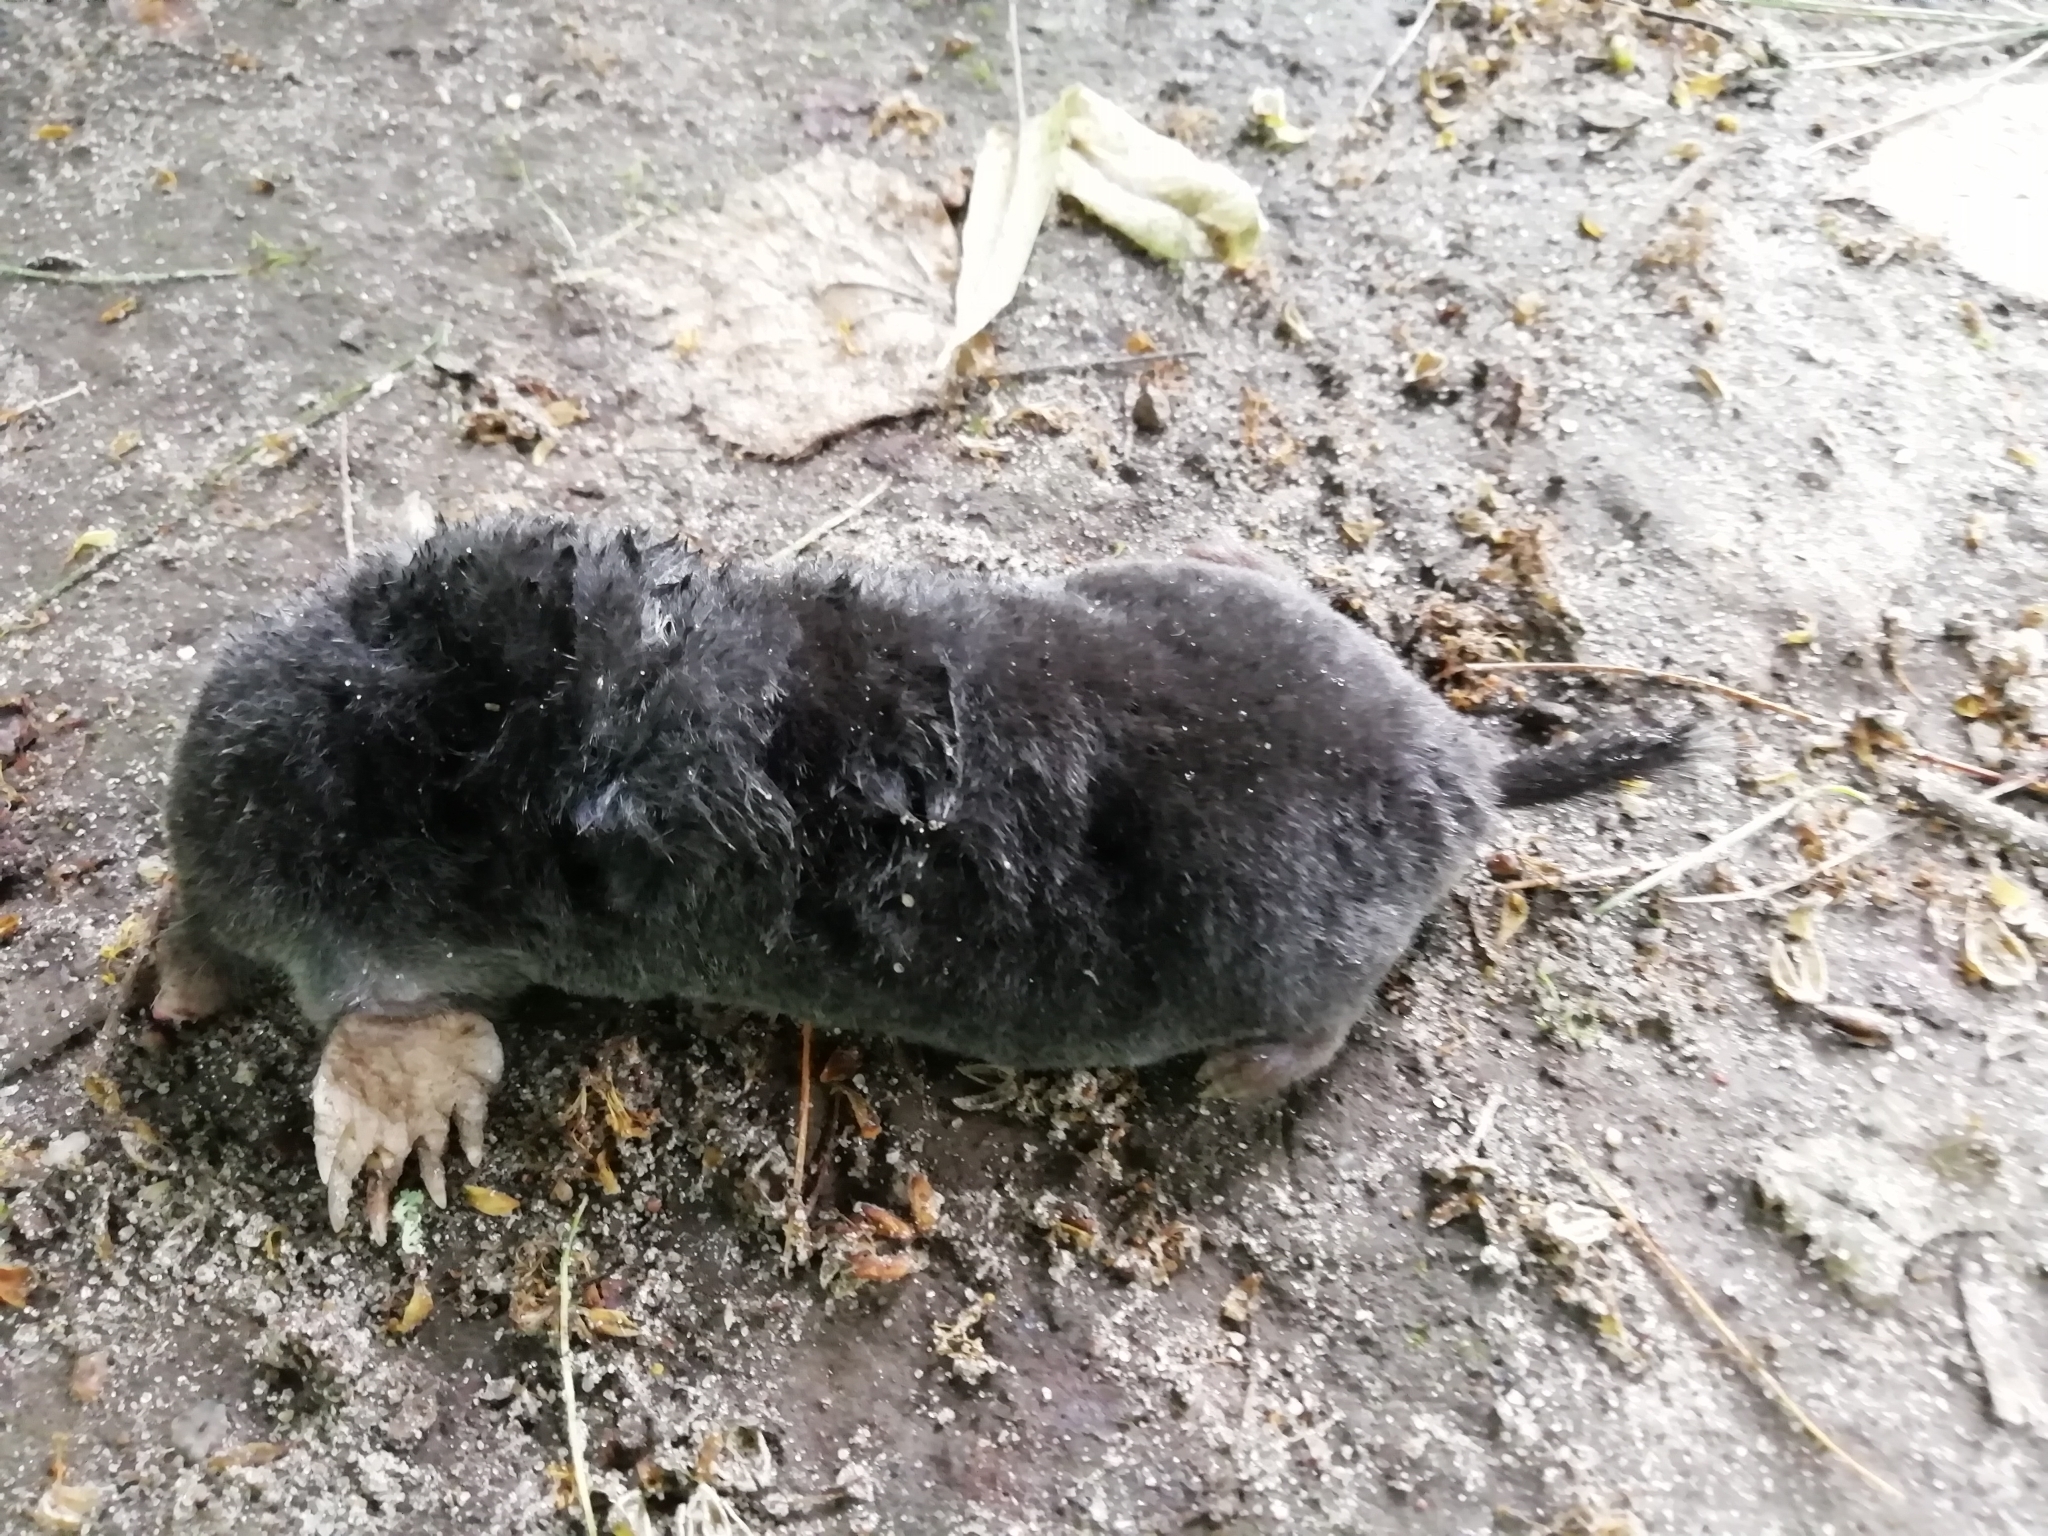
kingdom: Animalia
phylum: Chordata
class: Mammalia
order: Soricomorpha
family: Talpidae
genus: Talpa
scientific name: Talpa europaea
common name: European mole
